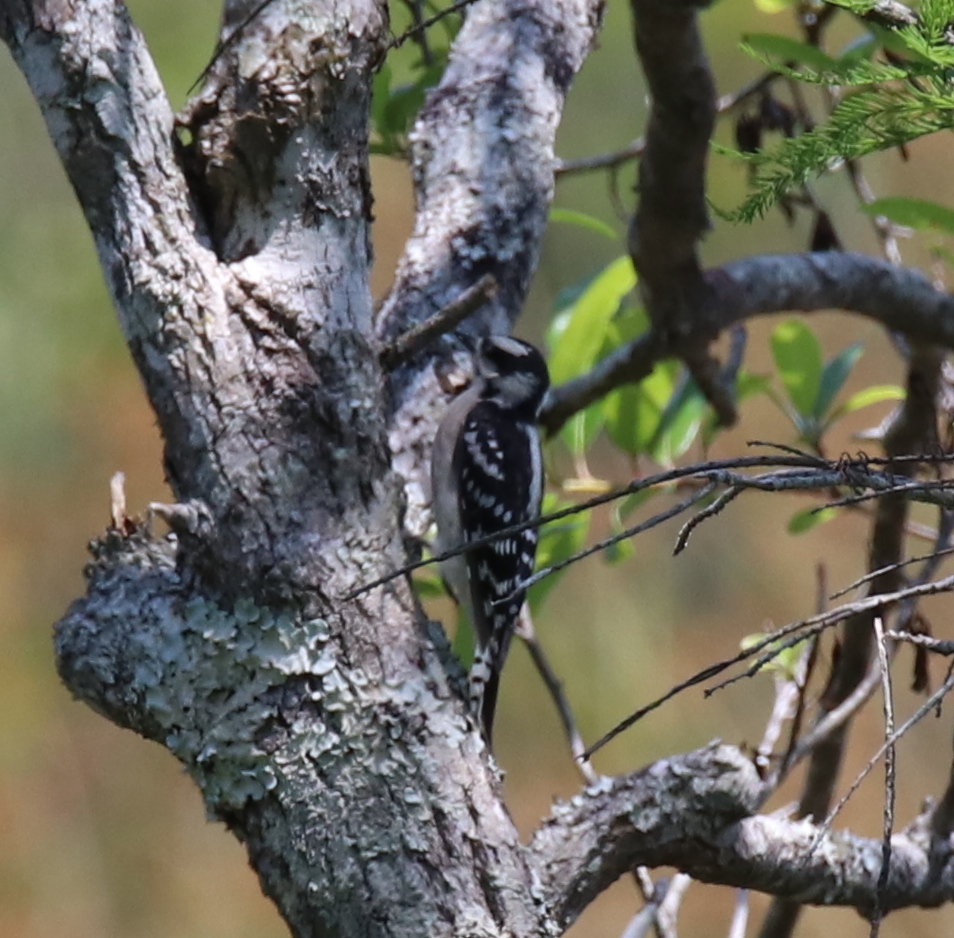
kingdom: Animalia
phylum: Chordata
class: Aves
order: Piciformes
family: Picidae
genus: Dryobates
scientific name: Dryobates pubescens
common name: Downy woodpecker
